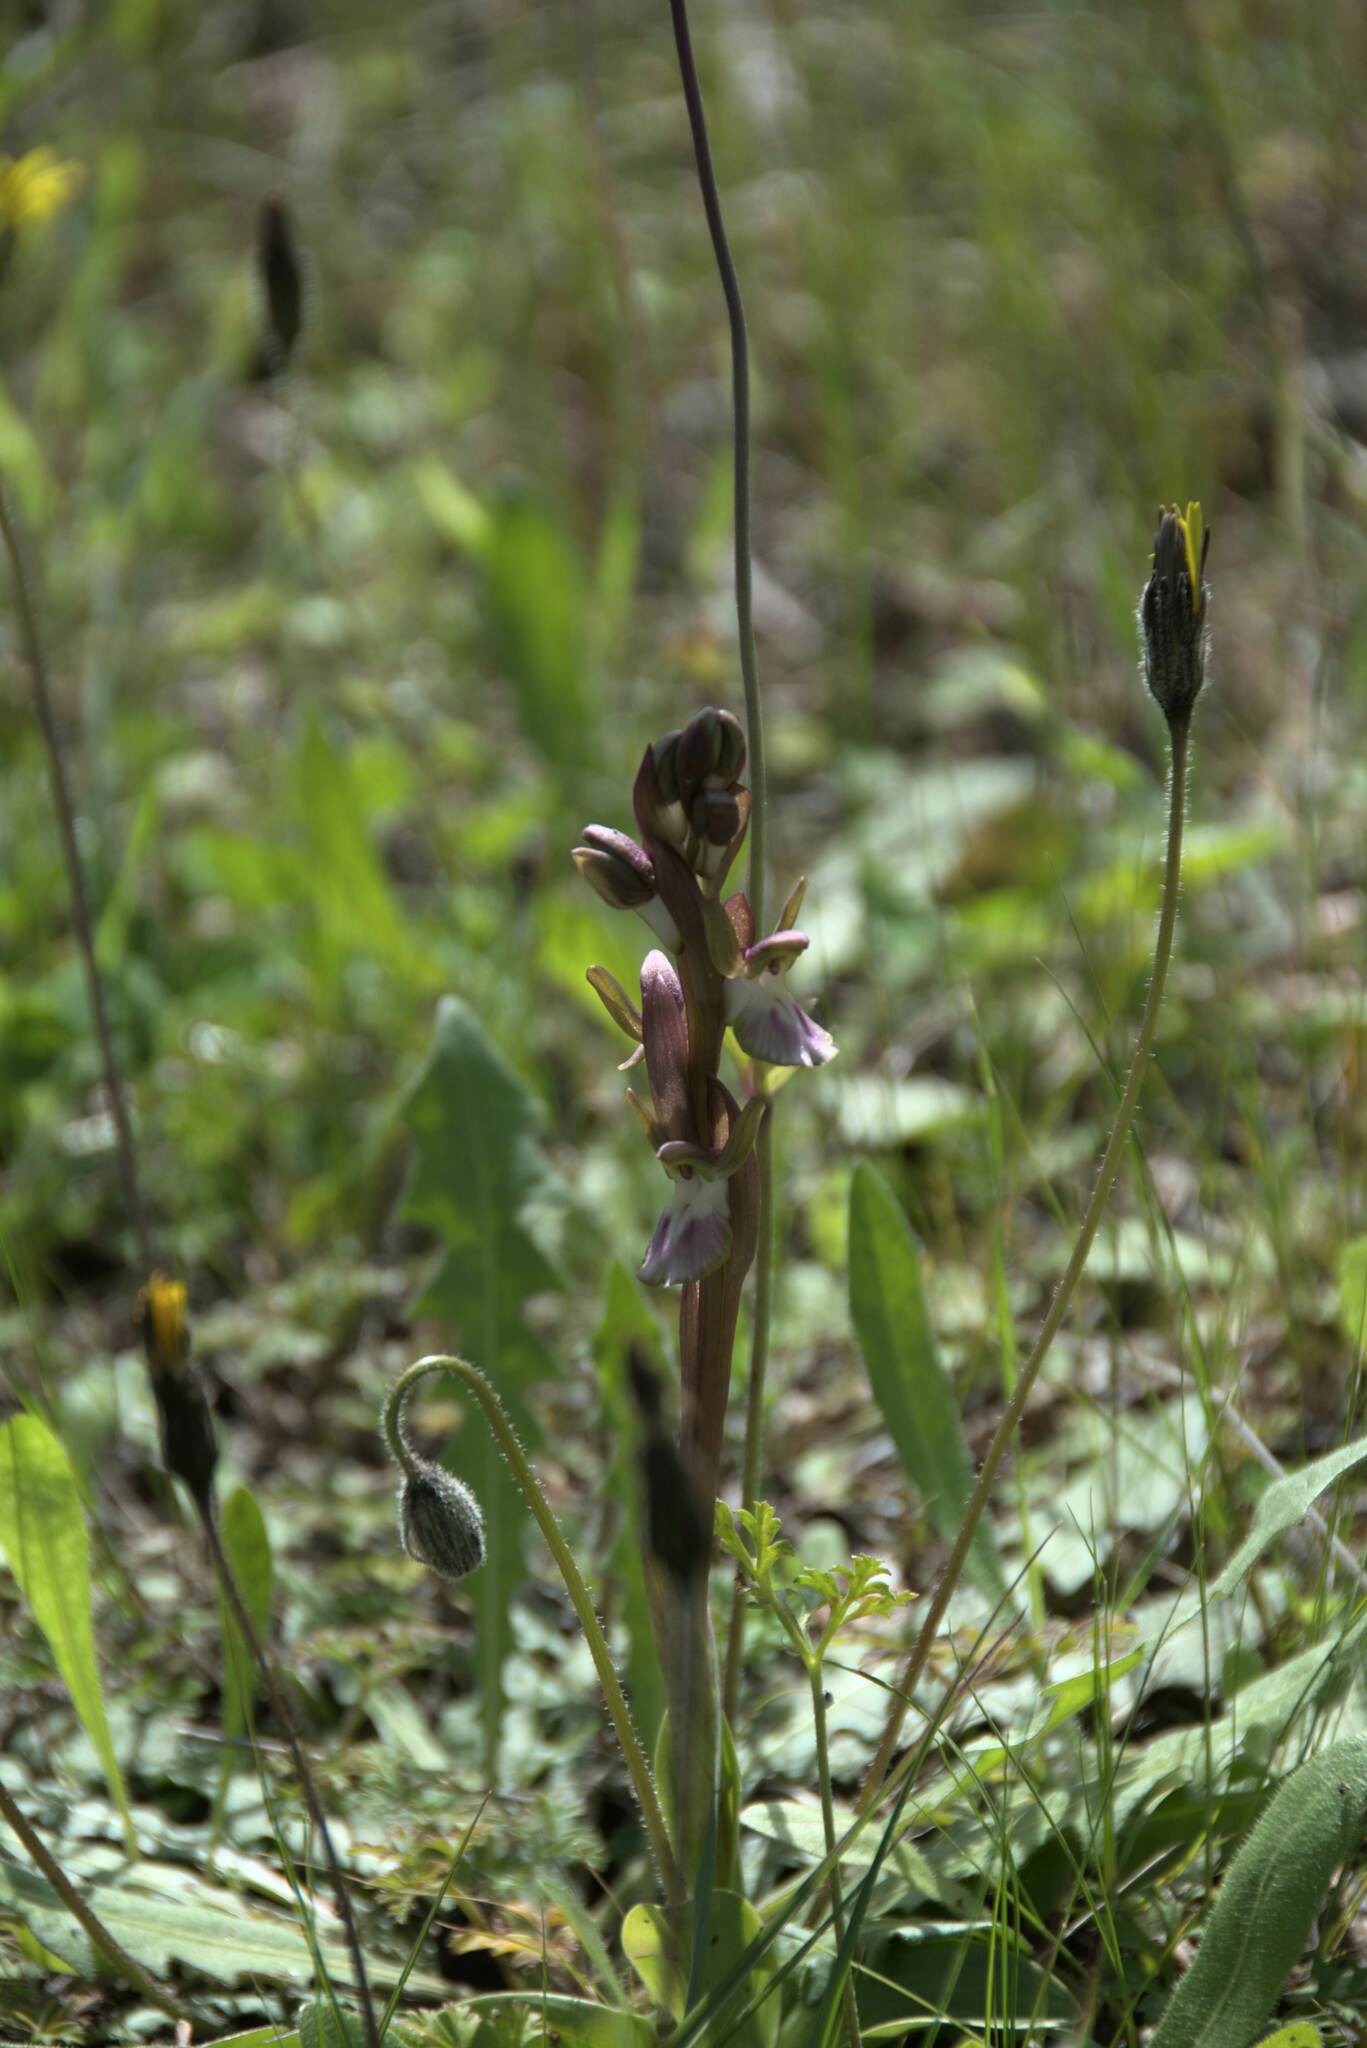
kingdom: Plantae
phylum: Tracheophyta
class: Liliopsida
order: Asparagales
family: Orchidaceae
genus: Anacamptis
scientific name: Anacamptis collina
